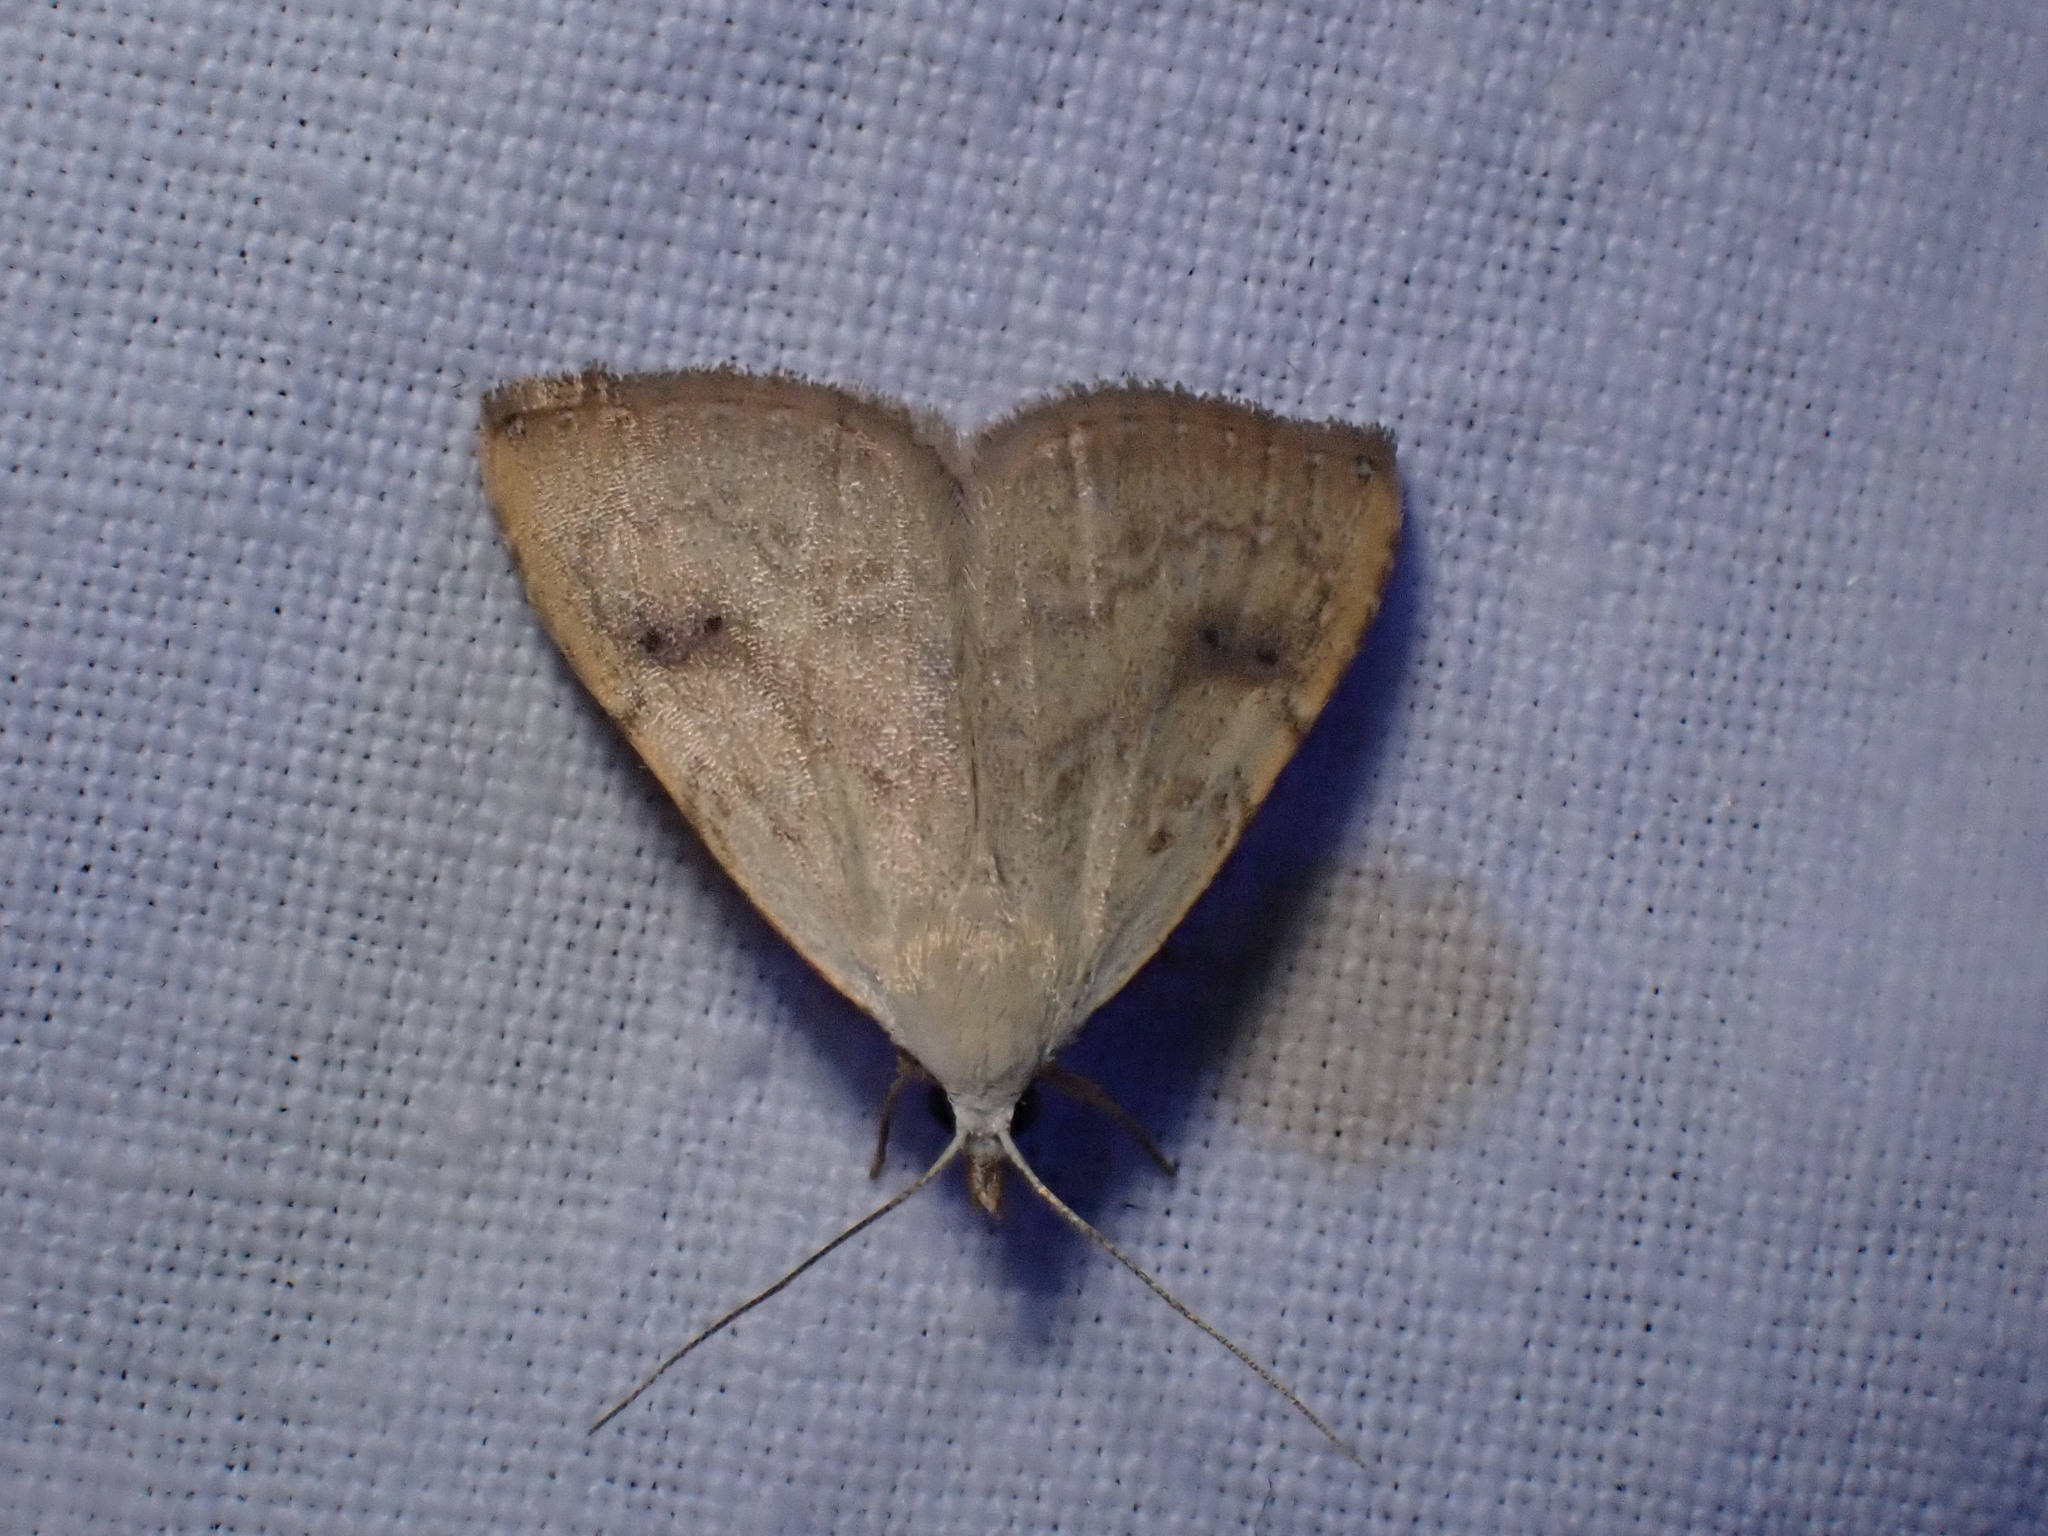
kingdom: Animalia
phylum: Arthropoda
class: Insecta
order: Lepidoptera
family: Erebidae
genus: Rivula
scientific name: Rivula sericealis
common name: Straw dot
